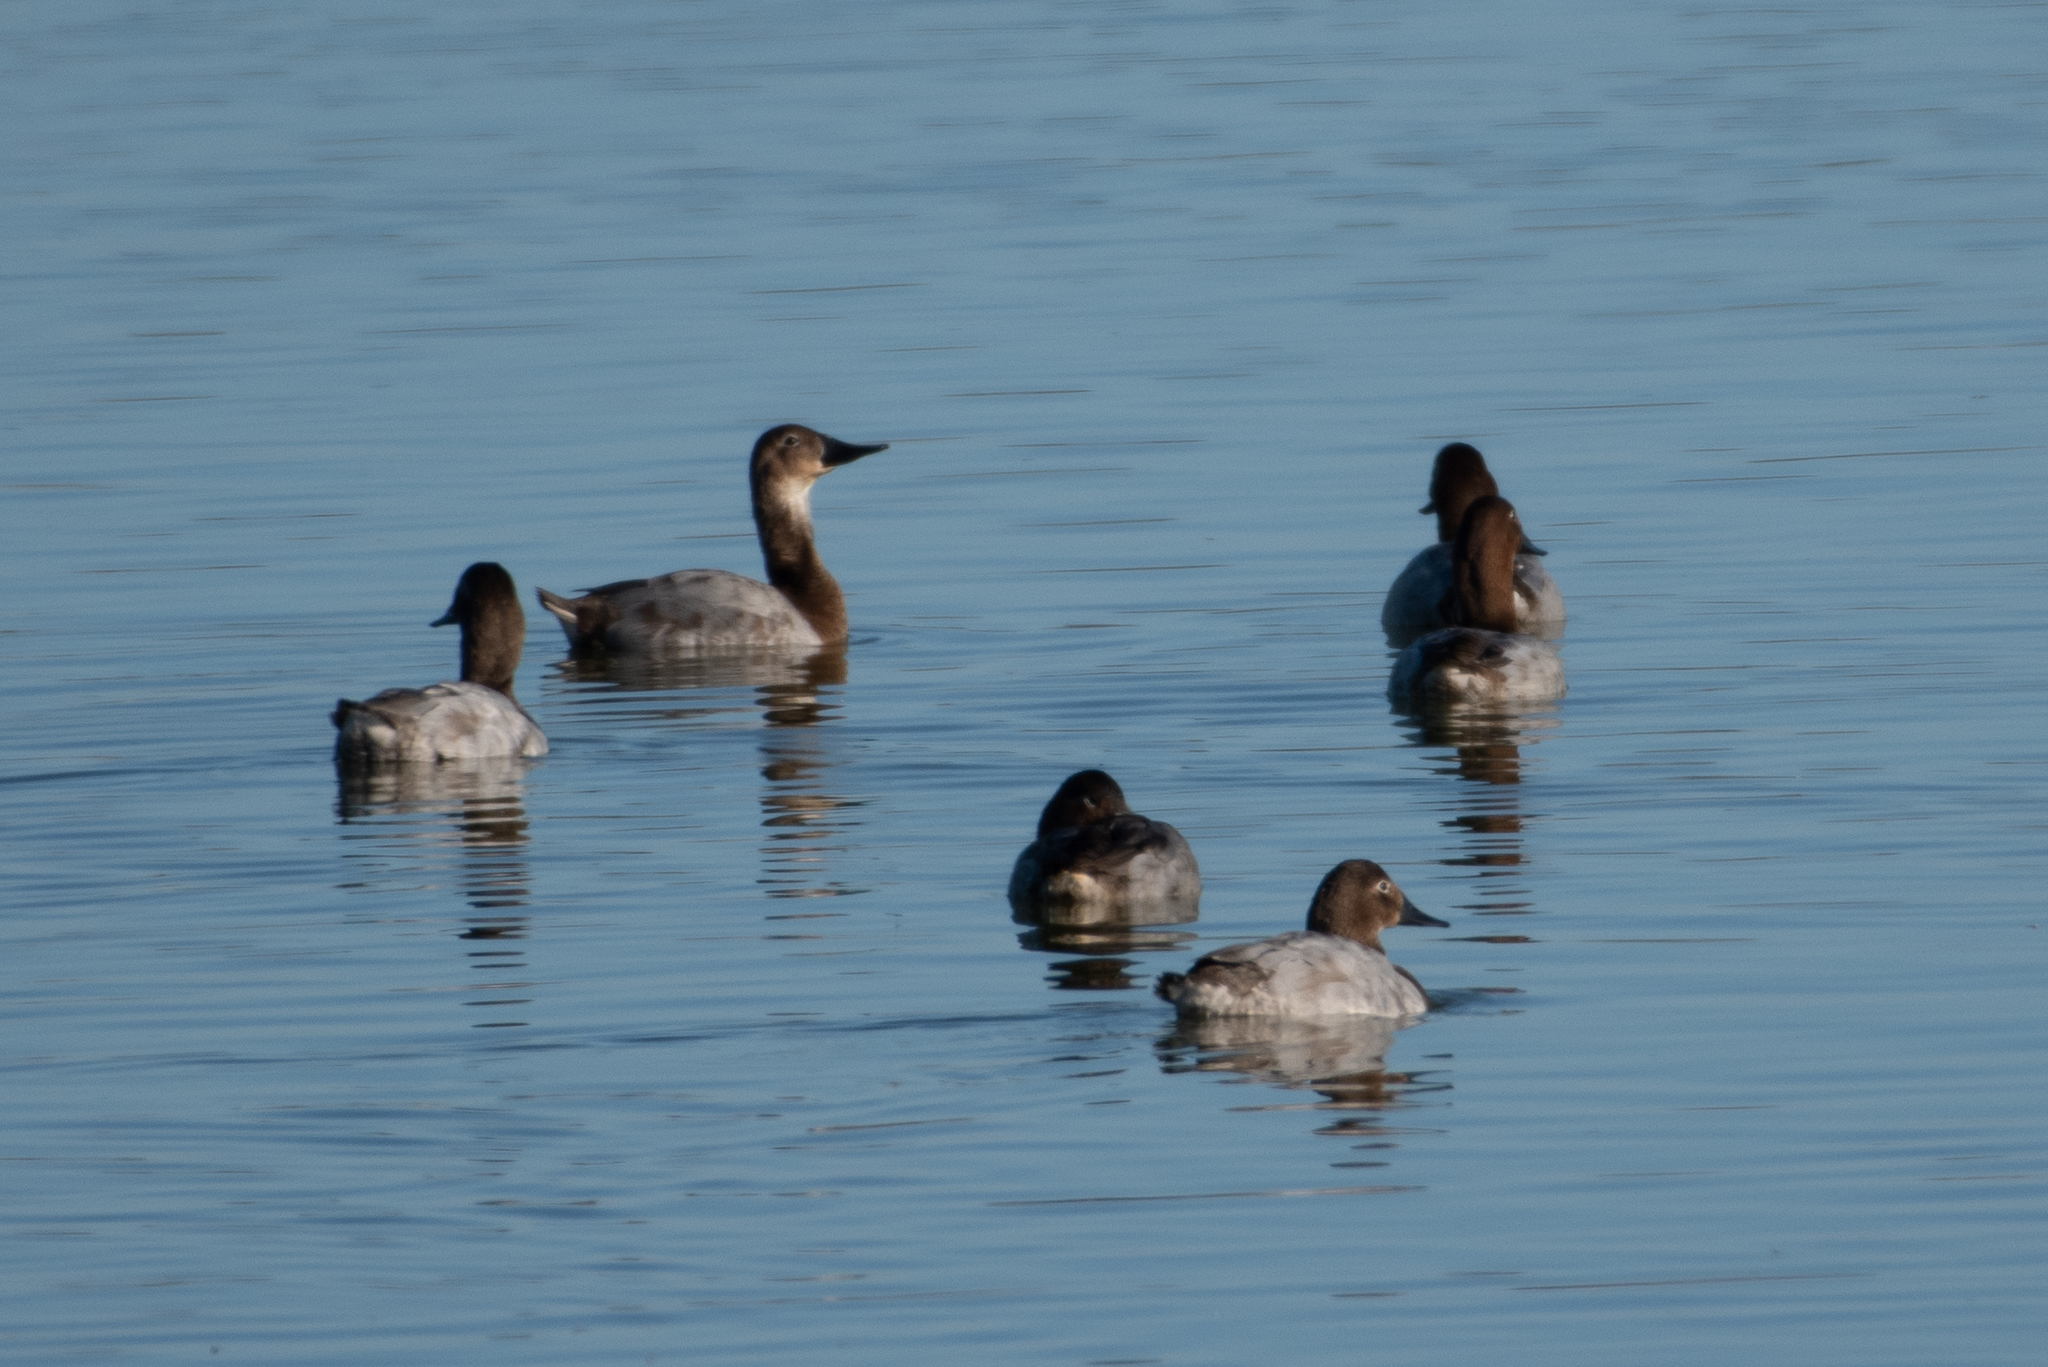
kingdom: Animalia
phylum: Chordata
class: Aves
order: Anseriformes
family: Anatidae
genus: Aythya
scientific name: Aythya valisineria
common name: Canvasback
